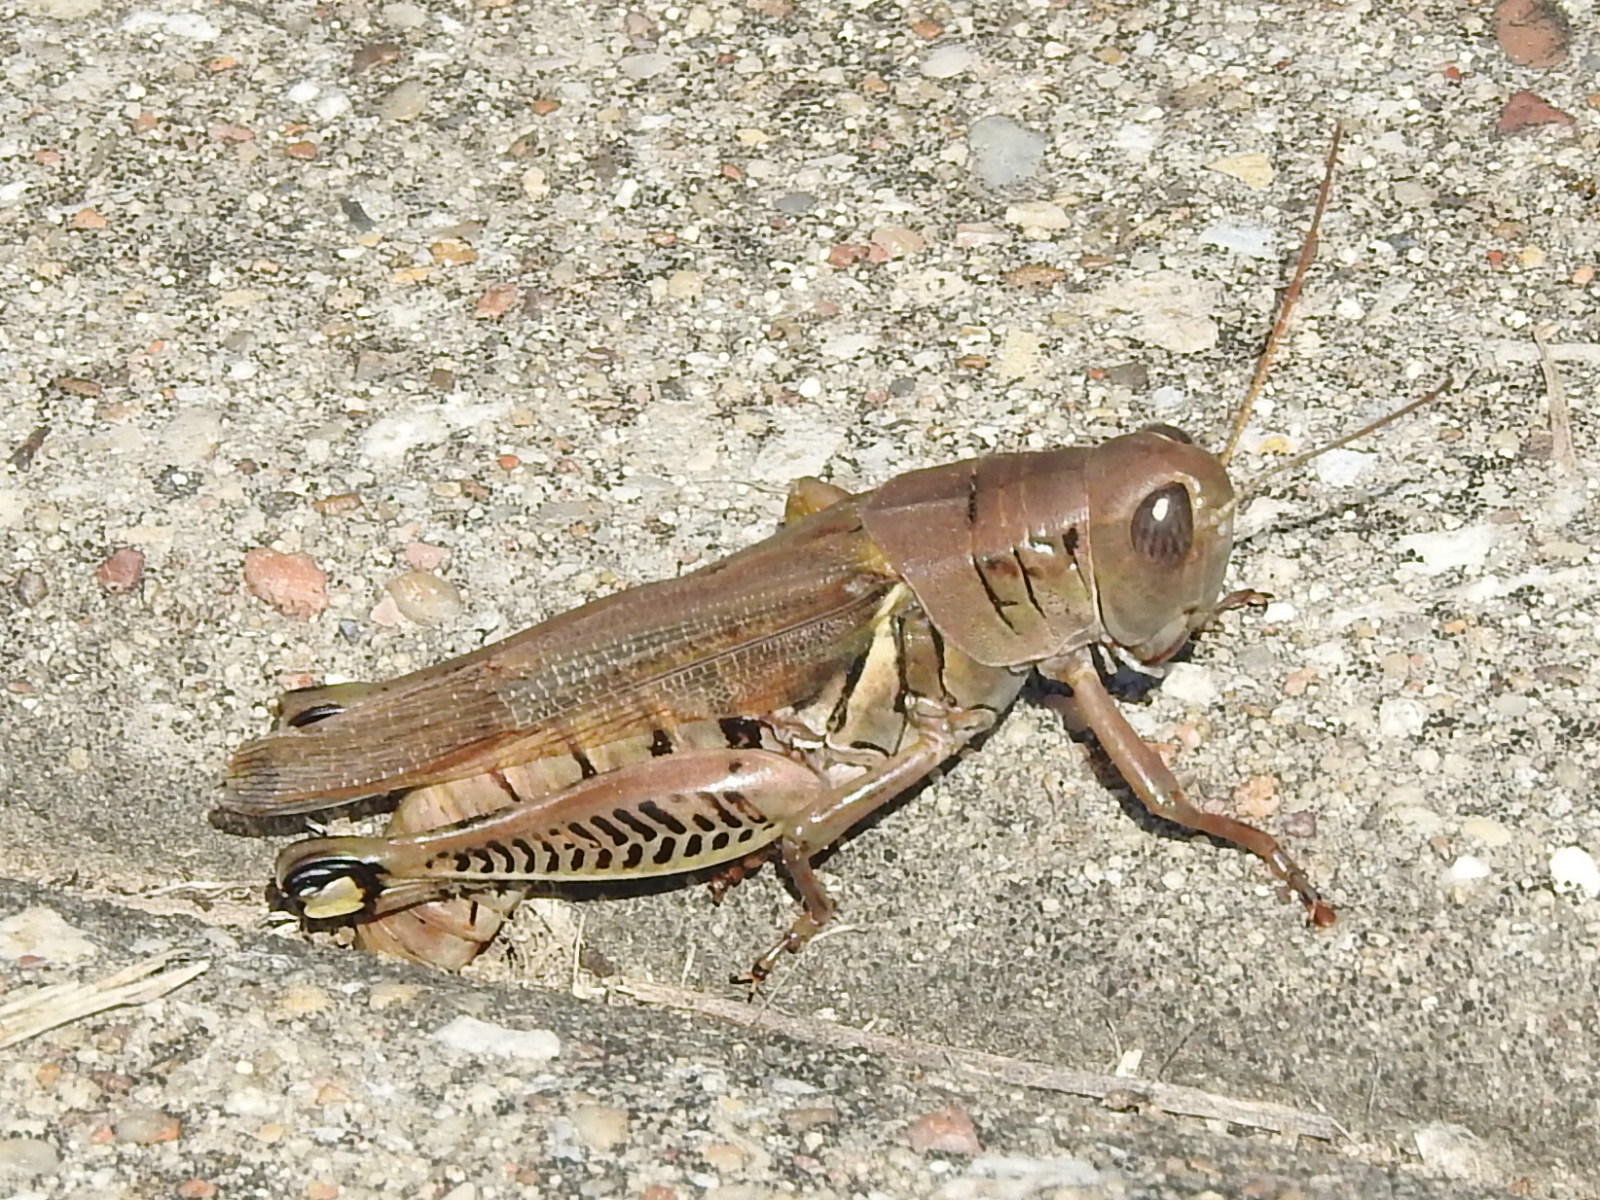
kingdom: Animalia
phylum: Arthropoda
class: Insecta
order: Orthoptera
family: Acrididae
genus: Melanoplus
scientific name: Melanoplus differentialis
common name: Differential grasshopper
